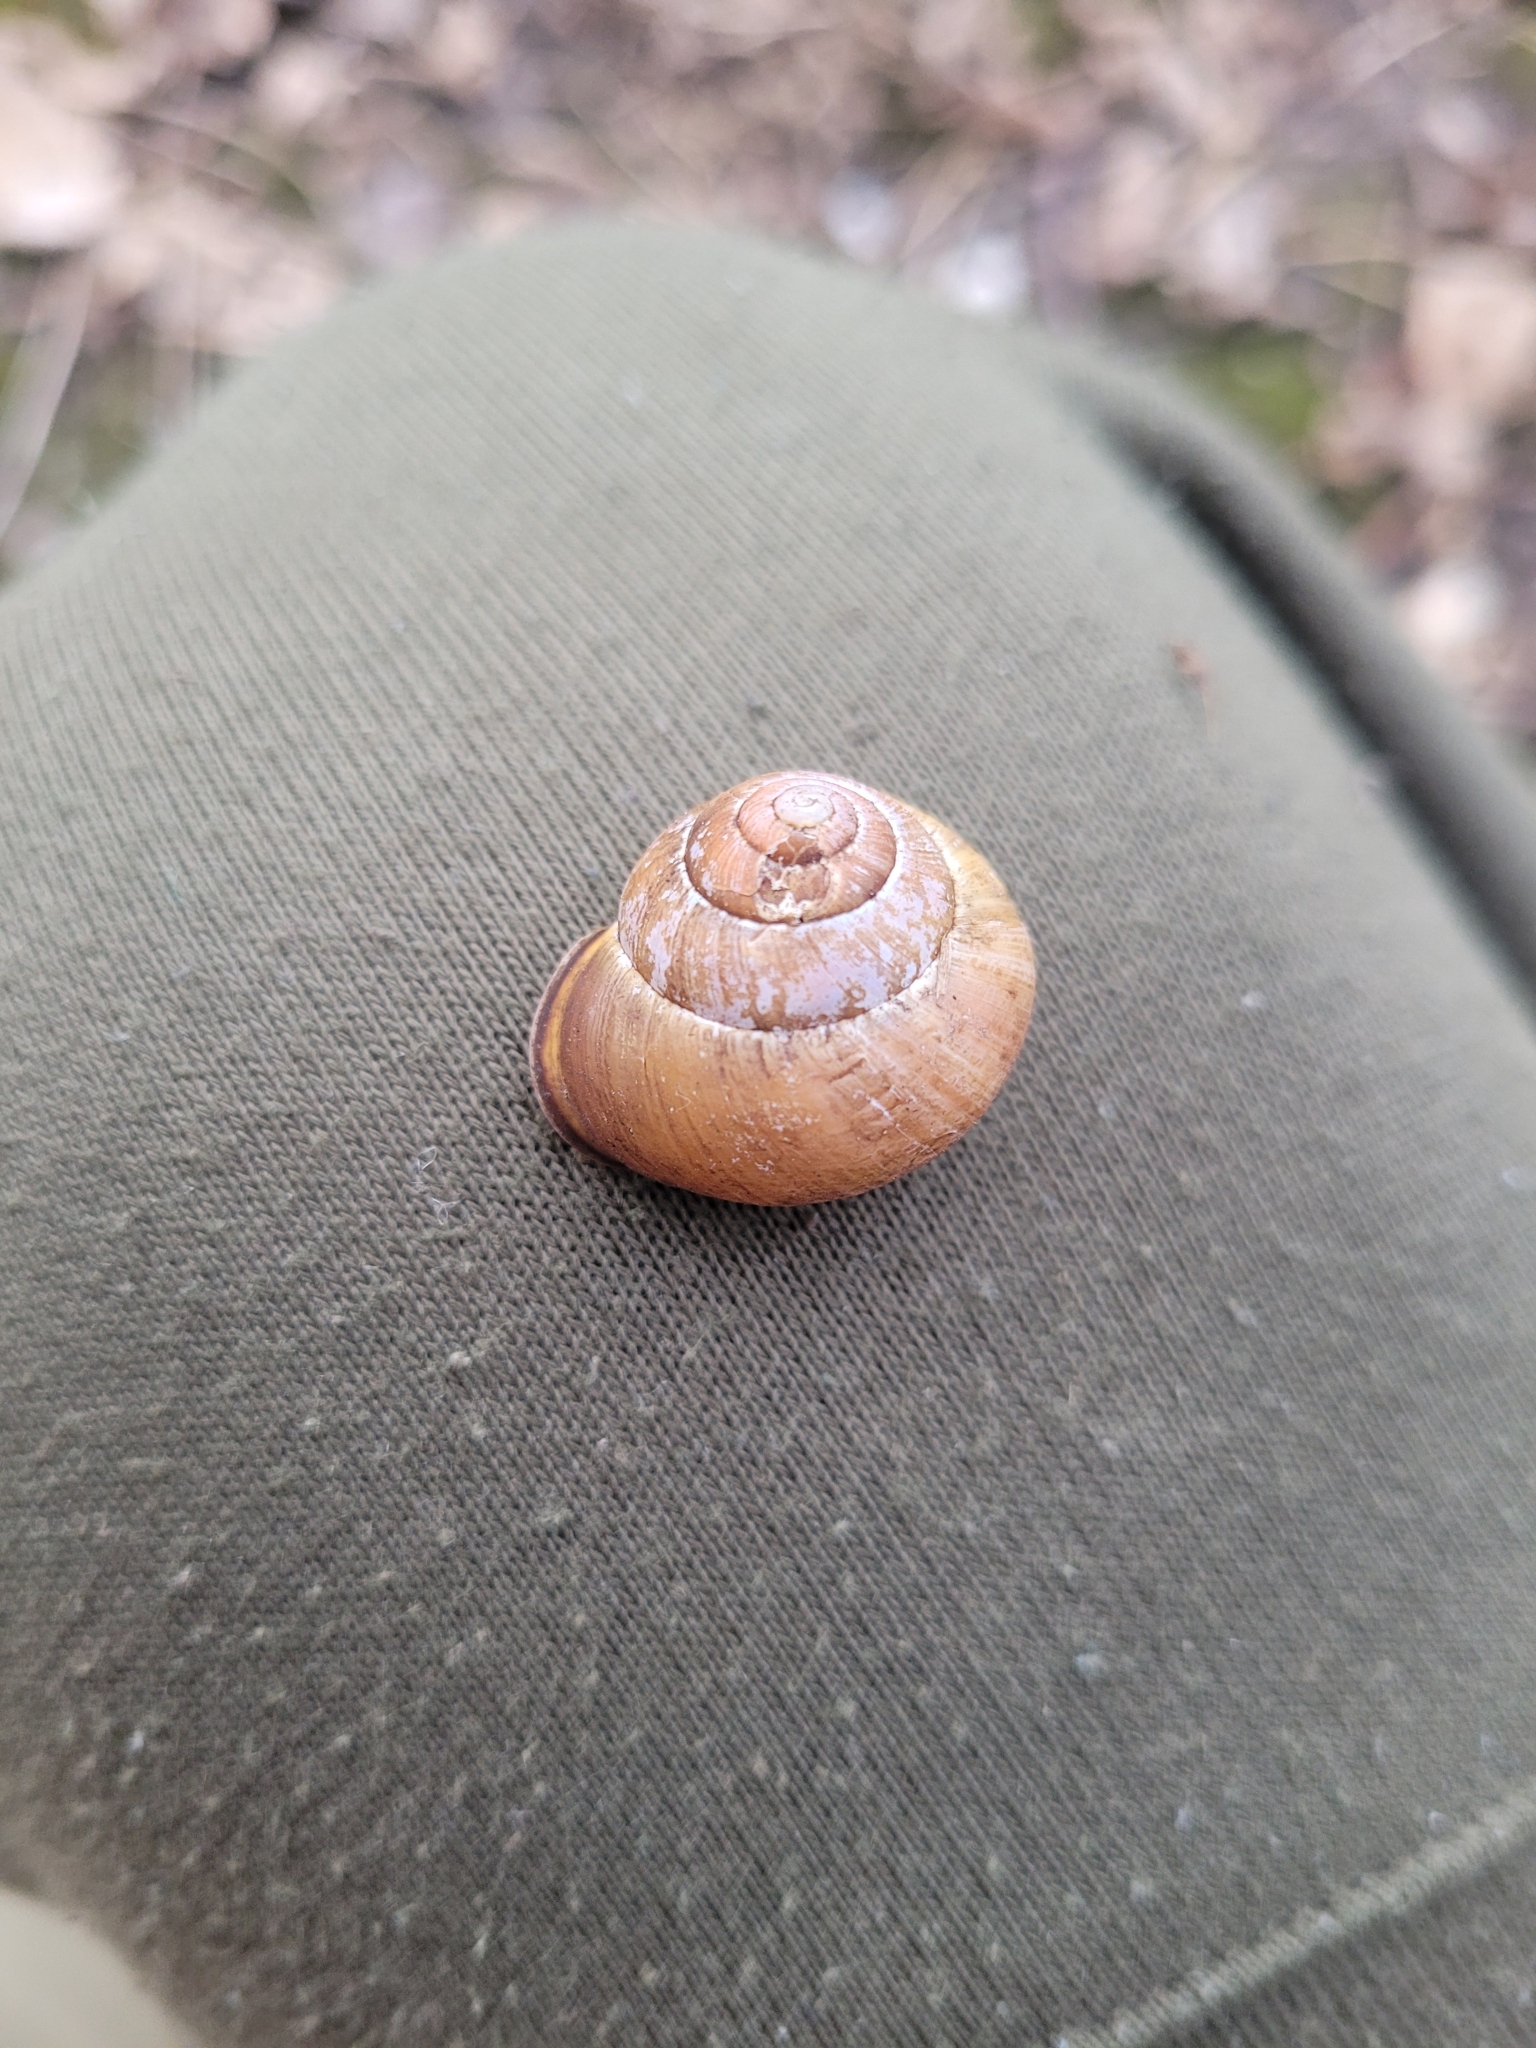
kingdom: Animalia
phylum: Mollusca
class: Gastropoda
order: Stylommatophora
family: Helicidae
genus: Cepaea
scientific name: Cepaea nemoralis
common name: Grovesnail
